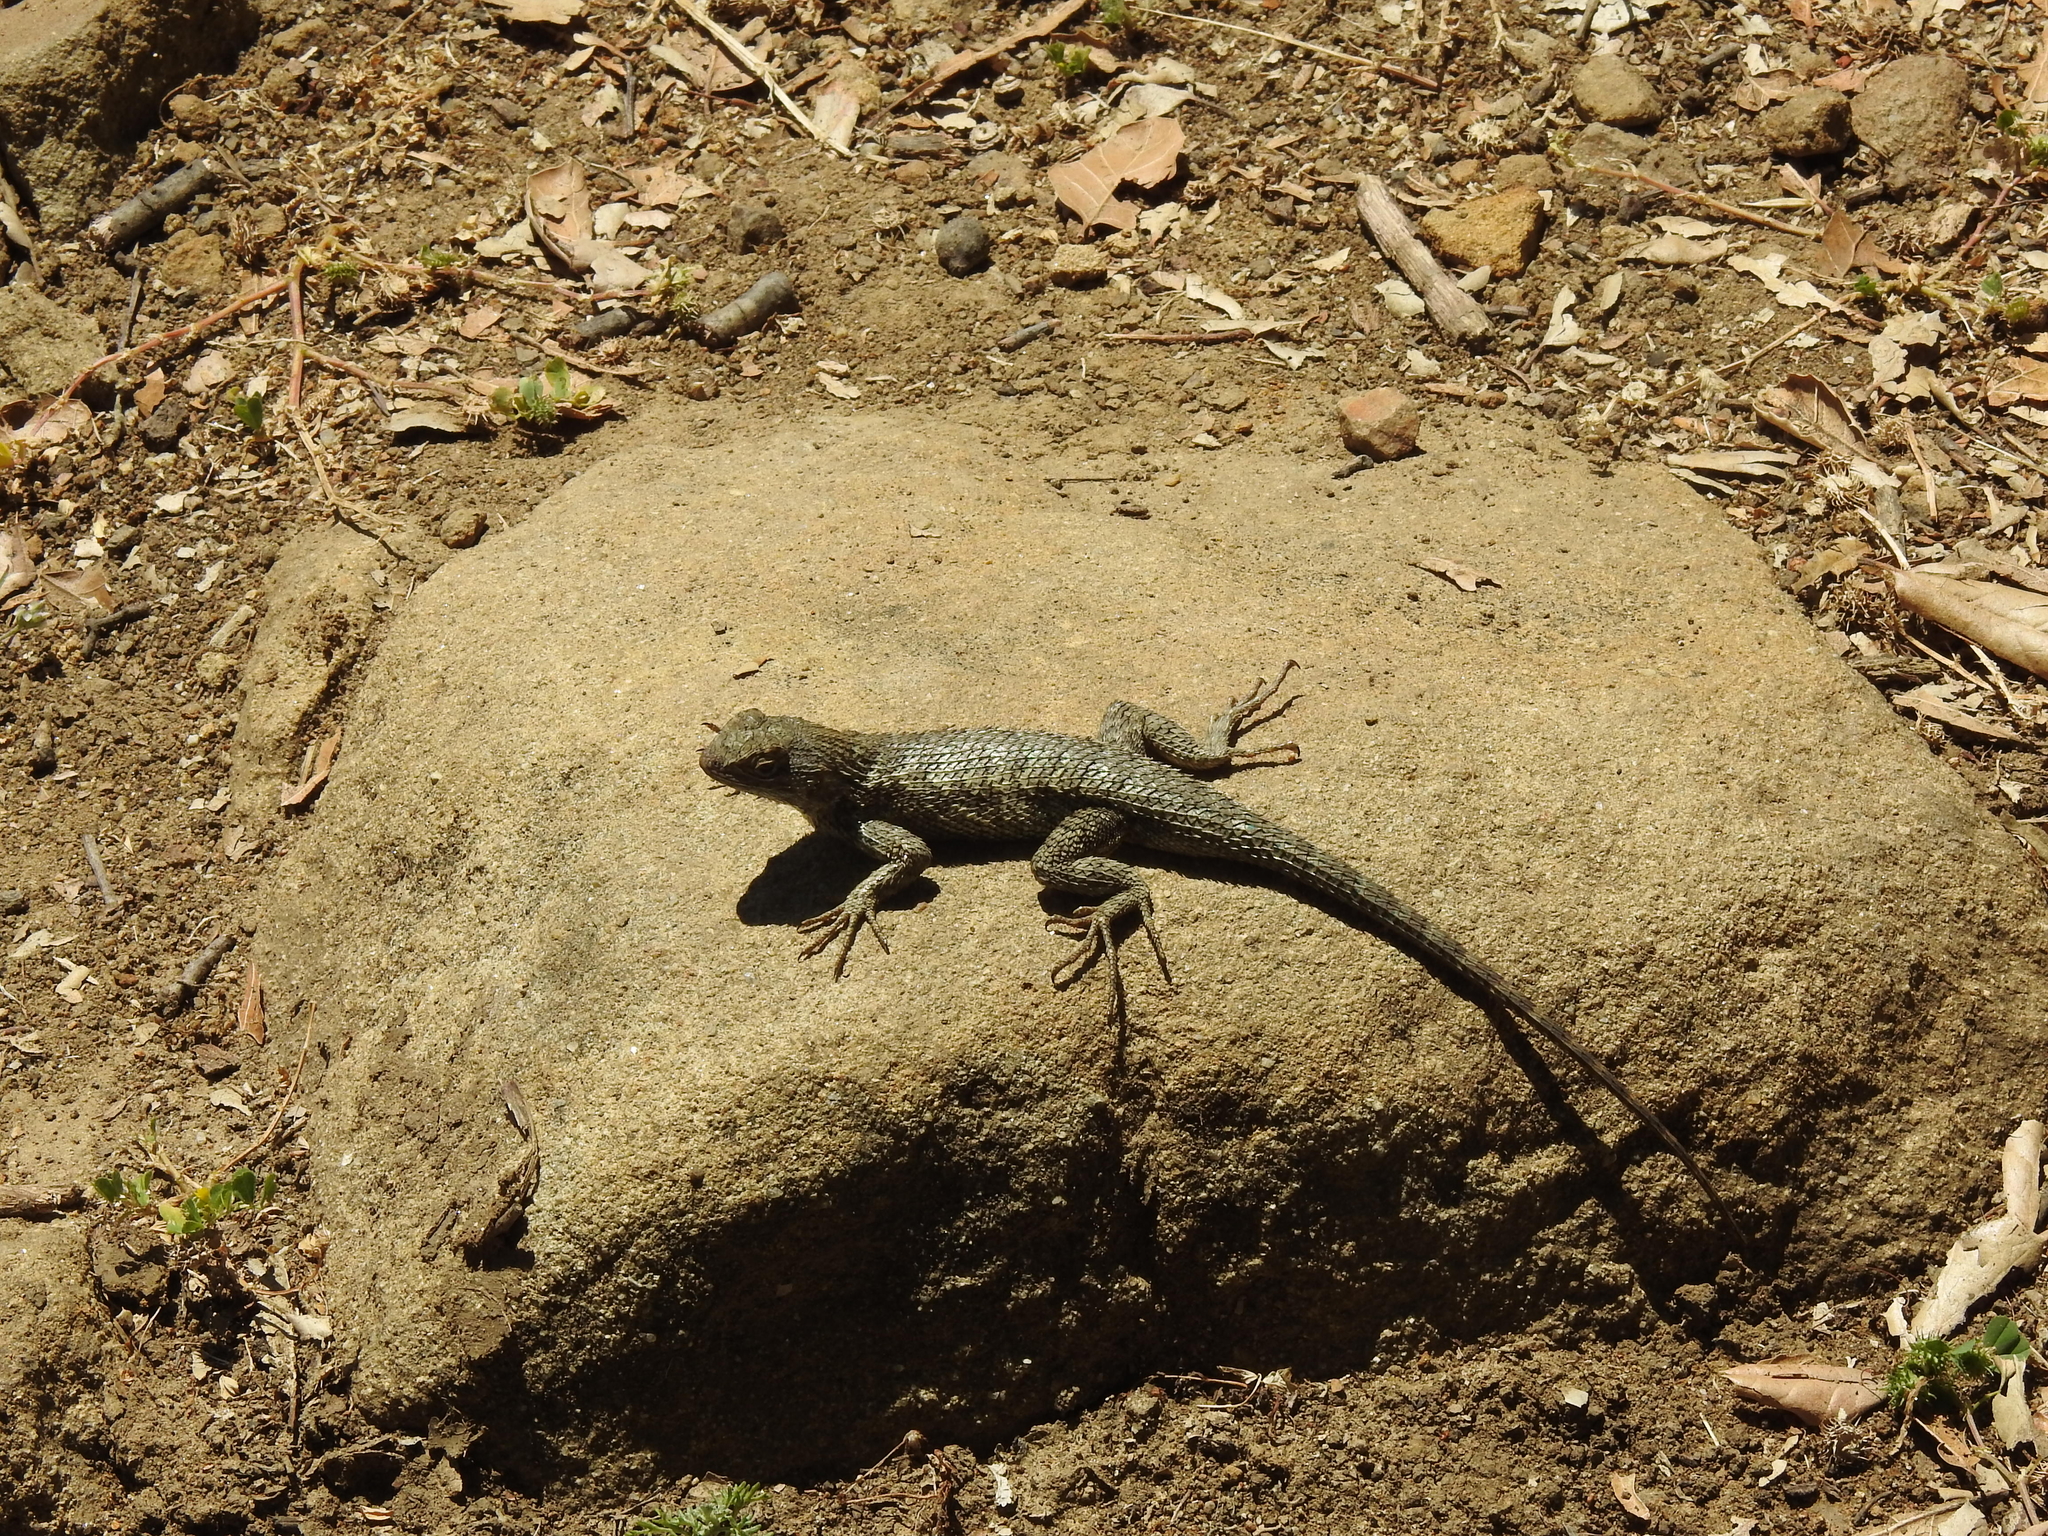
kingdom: Animalia
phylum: Chordata
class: Squamata
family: Phrynosomatidae
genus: Sceloporus
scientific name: Sceloporus occidentalis
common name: Western fence lizard
